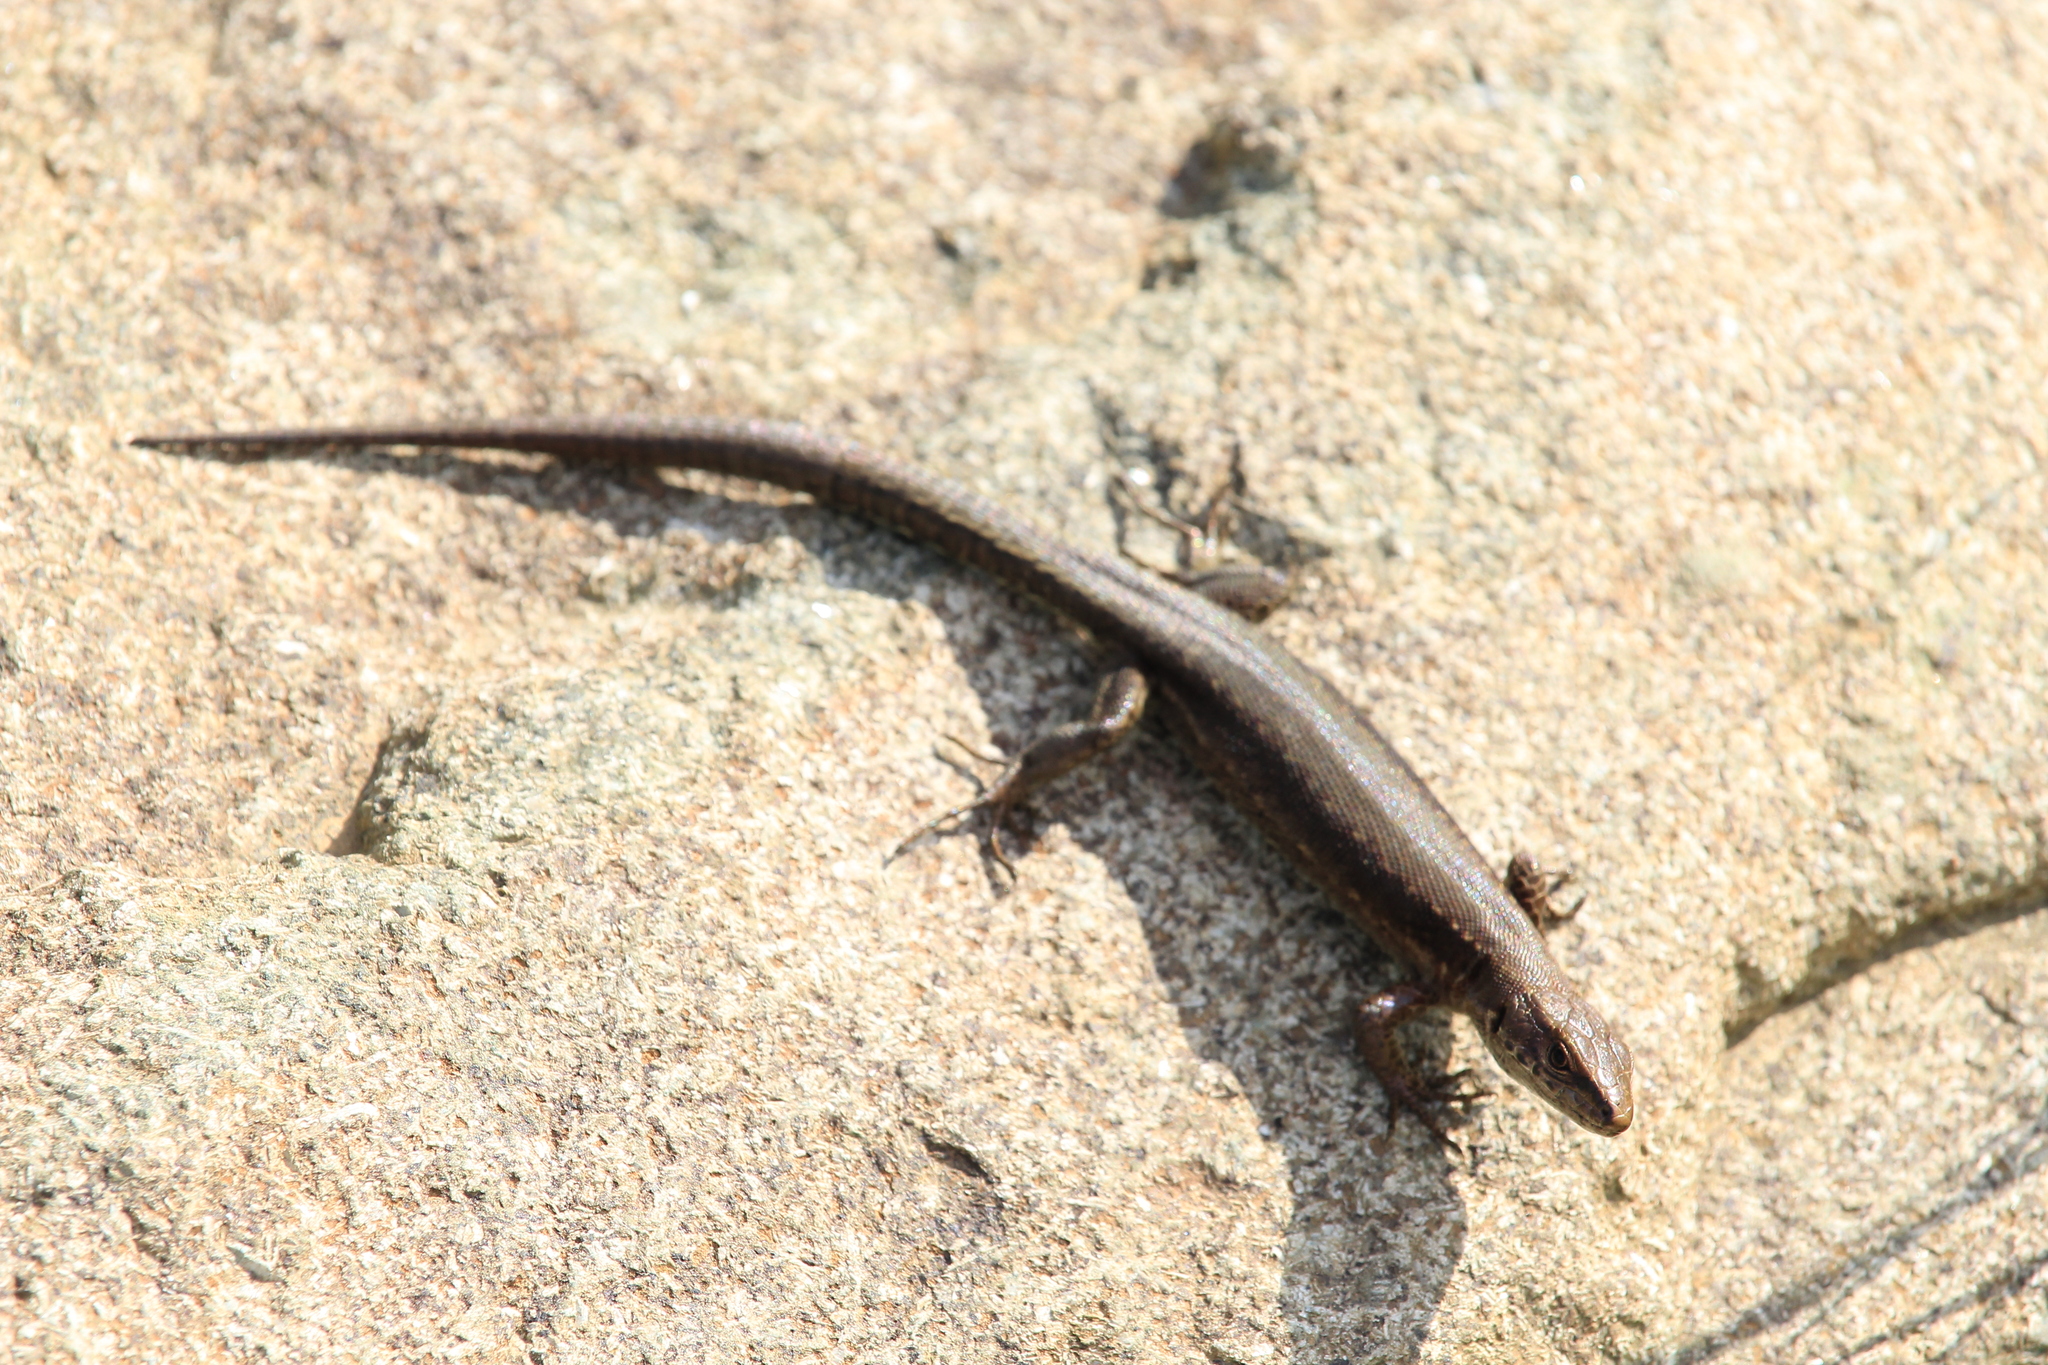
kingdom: Animalia
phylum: Chordata
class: Squamata
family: Lacertidae
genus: Darevskia
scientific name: Darevskia derjugini
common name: Derjugin's lizard
